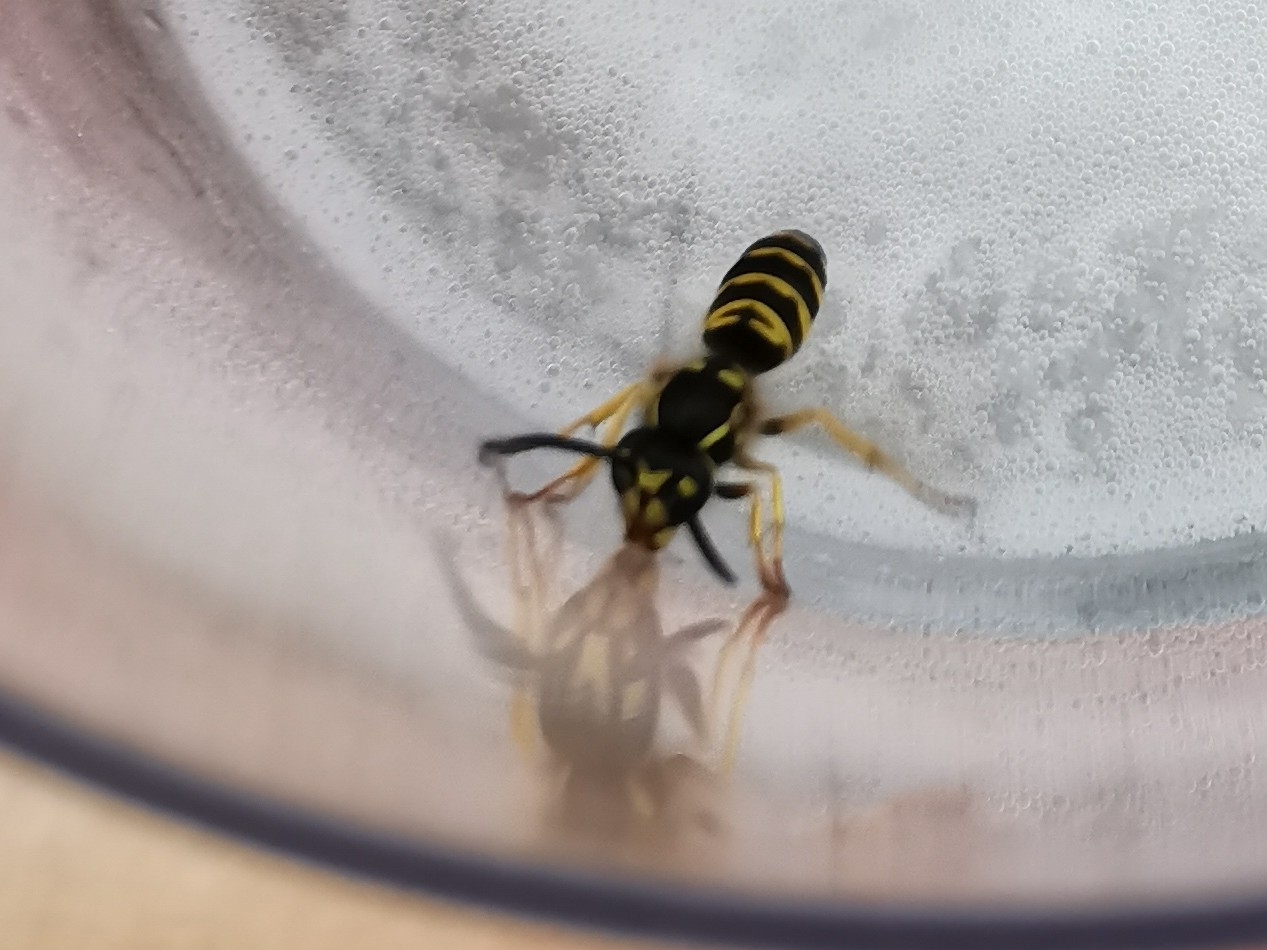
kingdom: Animalia
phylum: Arthropoda
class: Insecta
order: Hymenoptera
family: Vespidae
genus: Vespula
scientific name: Vespula maculifrons
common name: Eastern yellowjacket
